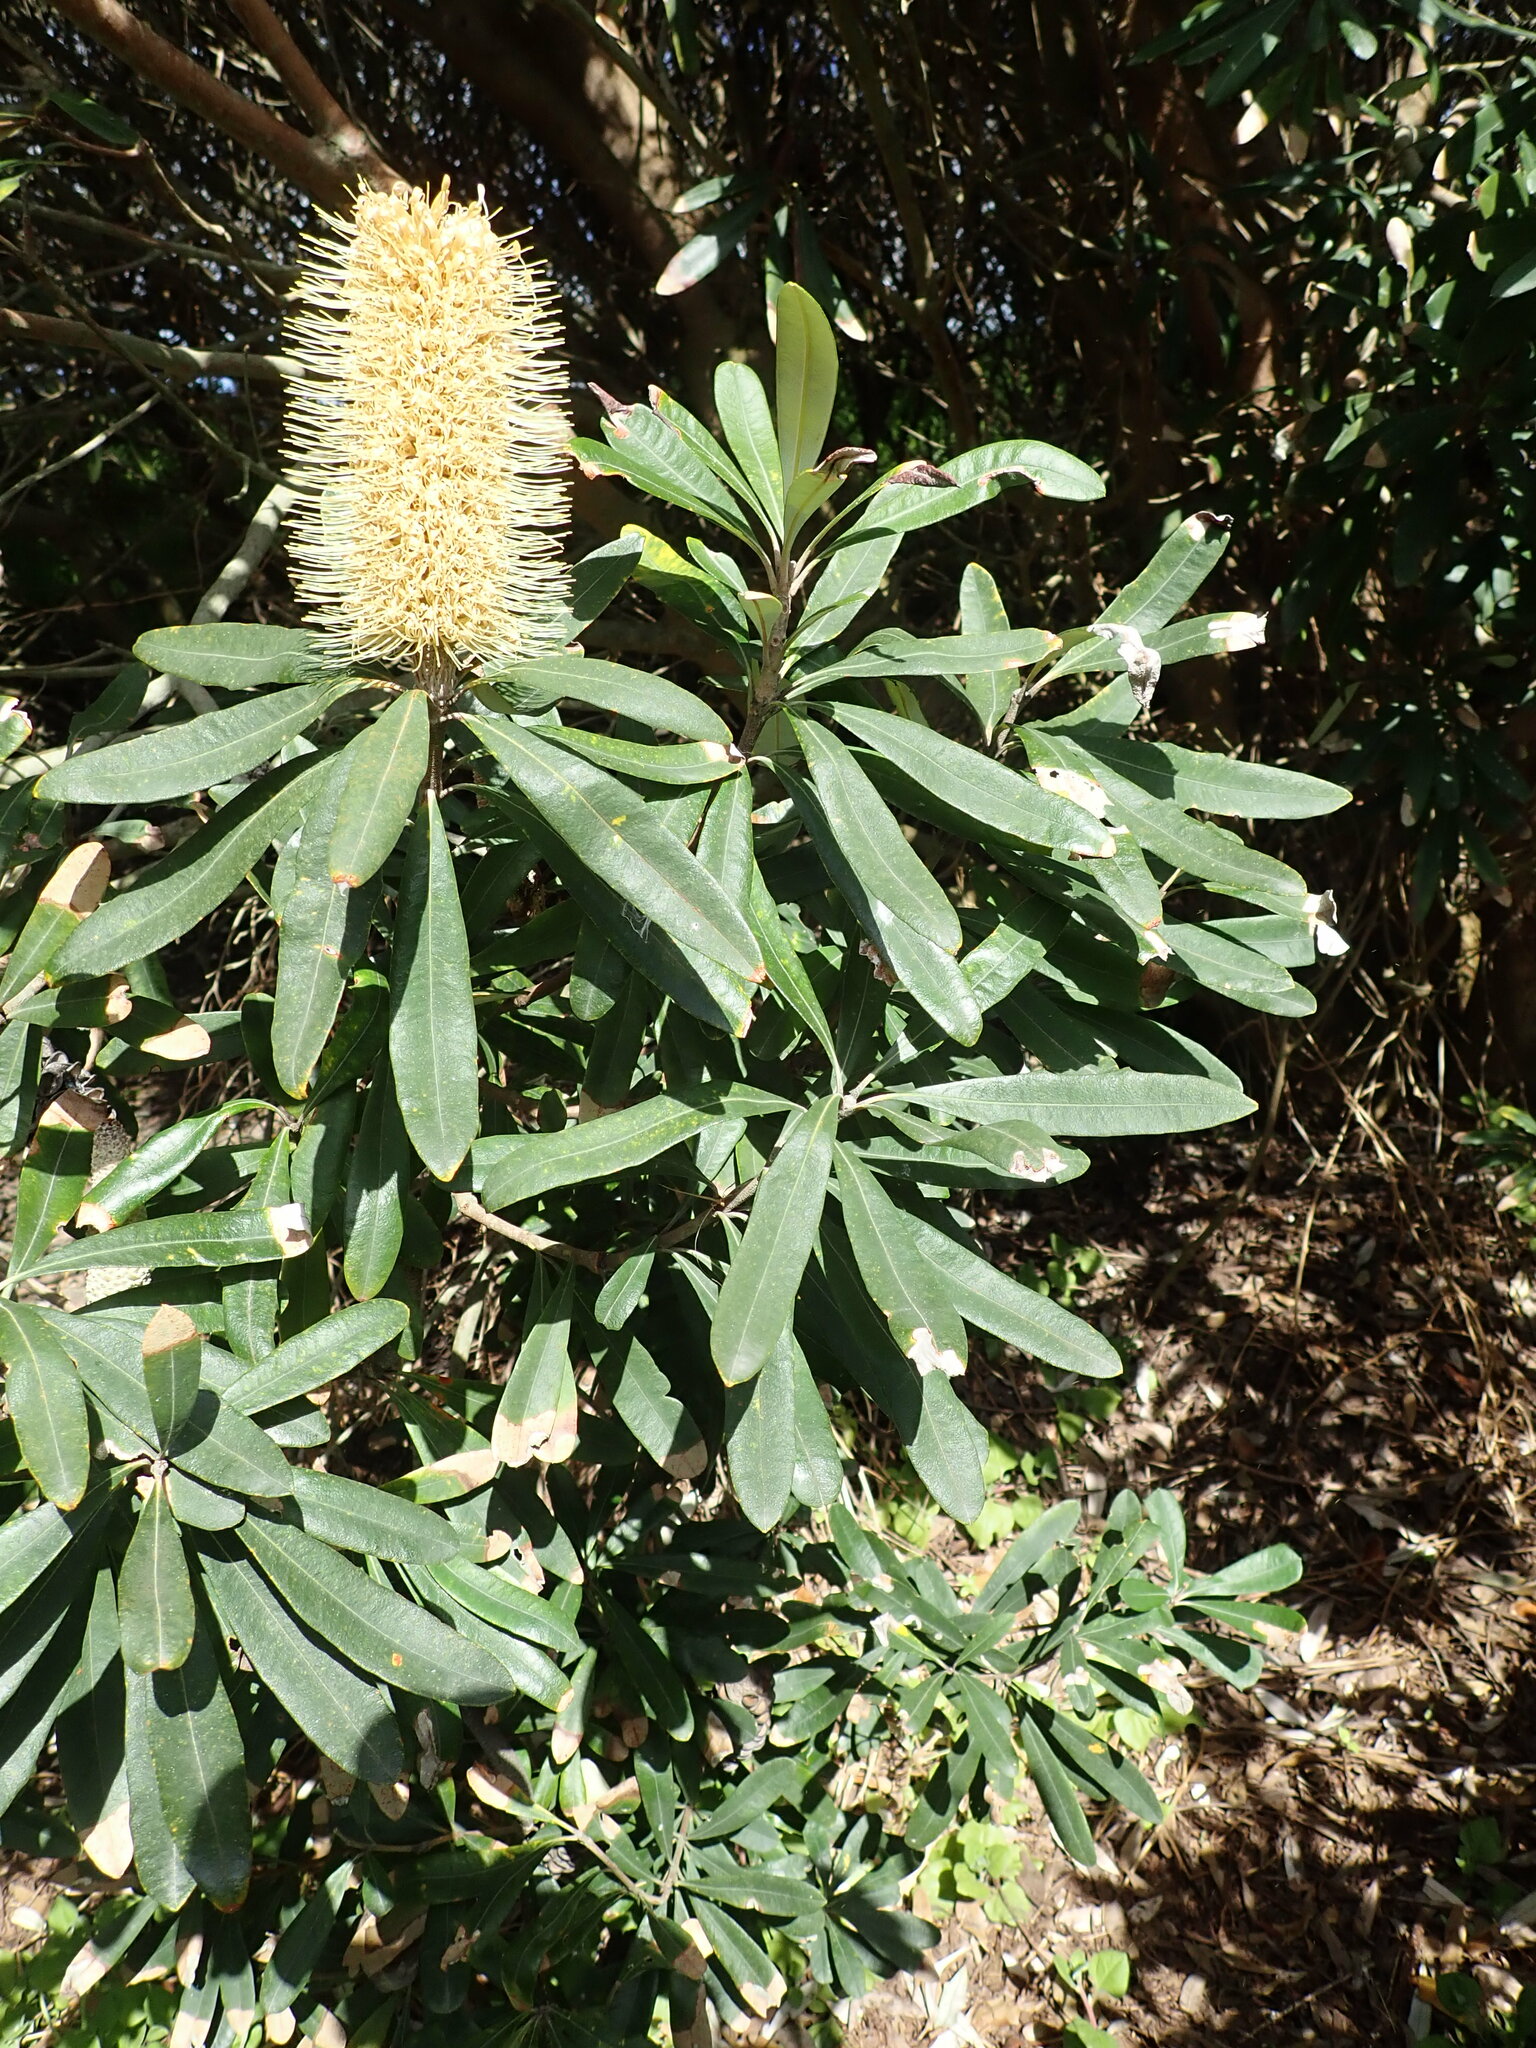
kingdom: Plantae
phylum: Tracheophyta
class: Magnoliopsida
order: Proteales
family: Proteaceae
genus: Banksia
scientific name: Banksia integrifolia
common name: White-honeysuckle
